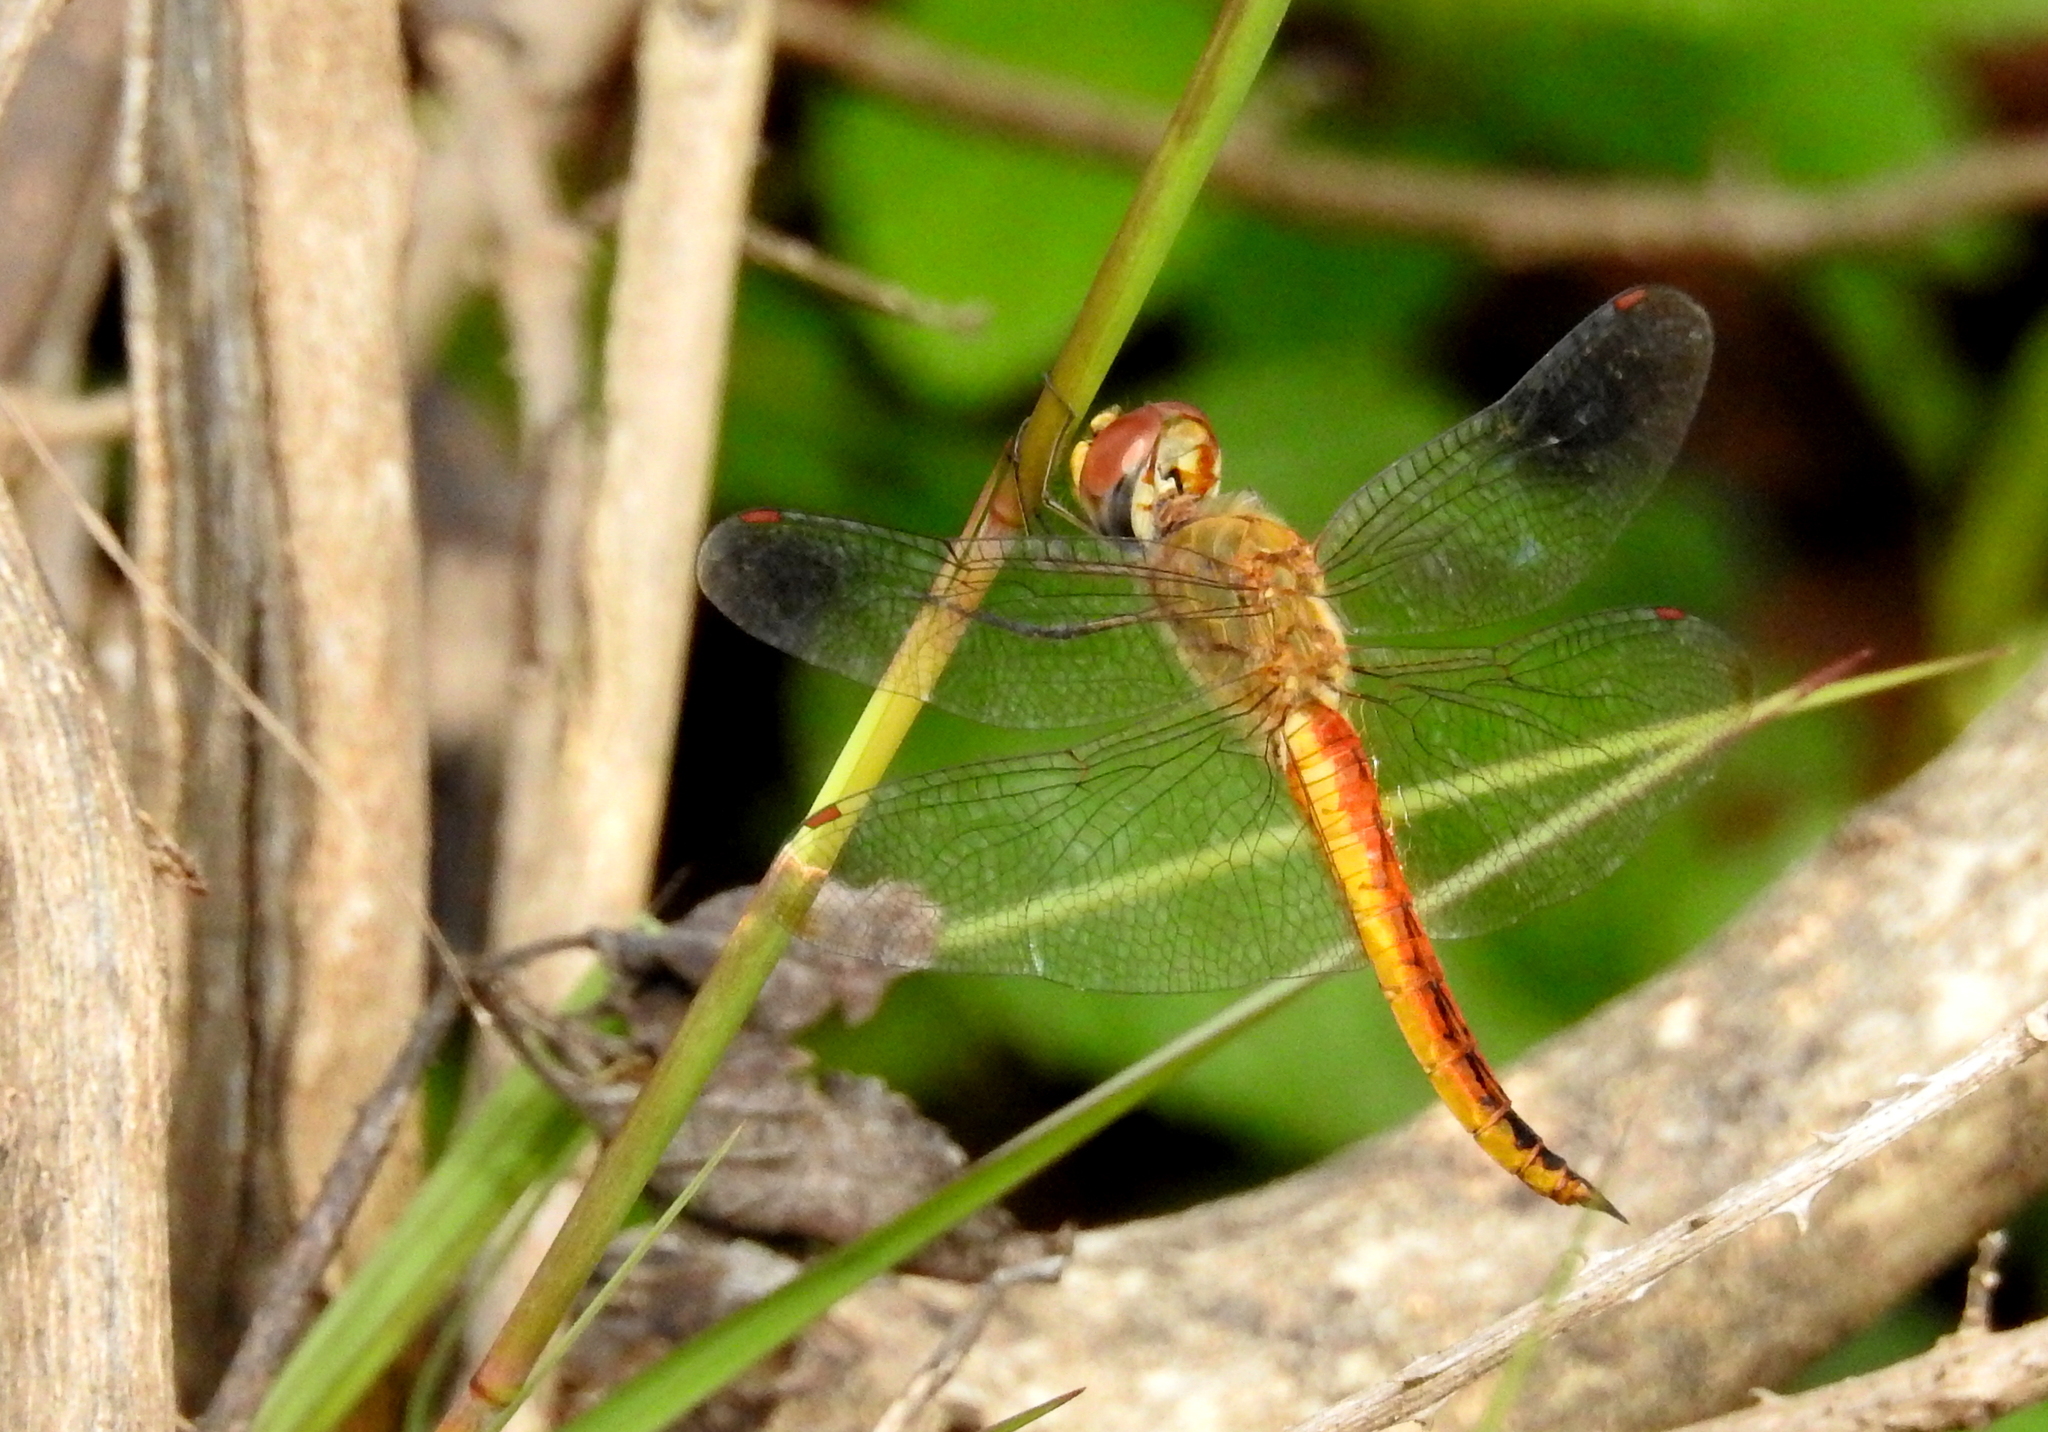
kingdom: Animalia
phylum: Arthropoda
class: Insecta
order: Odonata
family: Libellulidae
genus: Pantala
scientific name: Pantala flavescens
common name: Wandering glider
